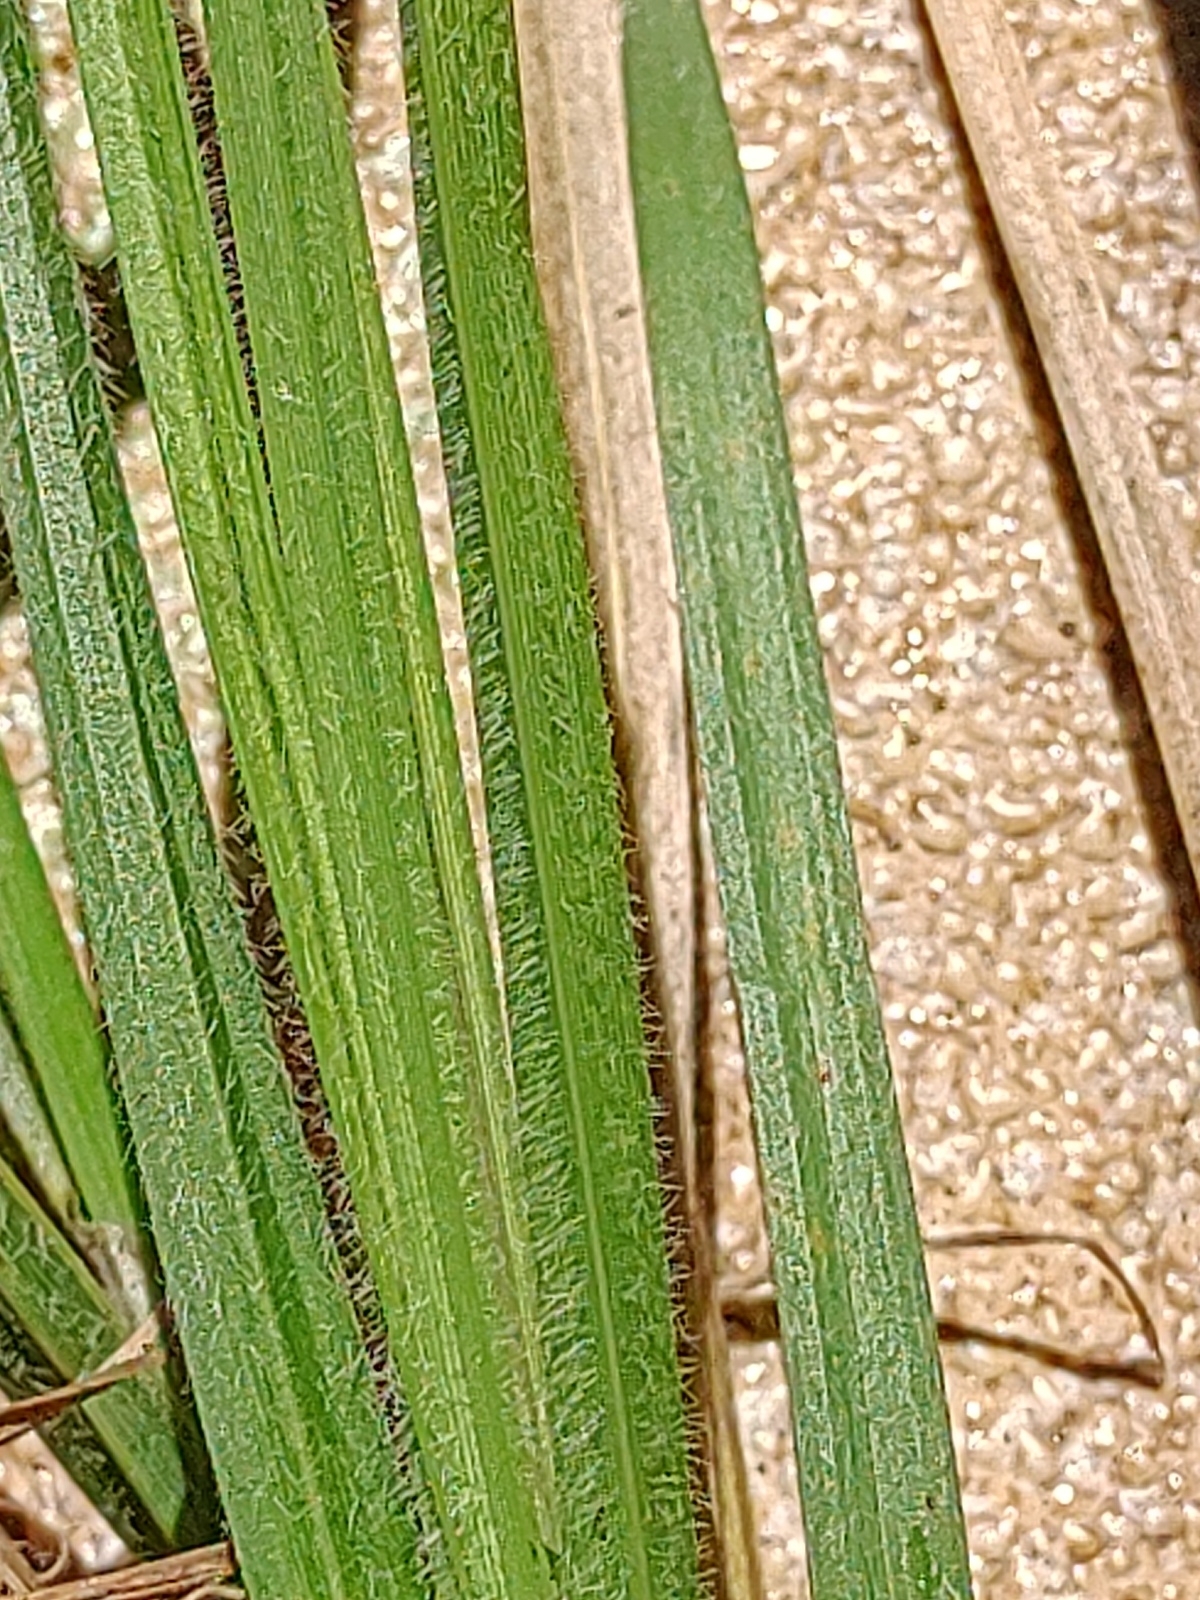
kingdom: Plantae
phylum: Tracheophyta
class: Liliopsida
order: Poales
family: Cyperaceae
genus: Carex
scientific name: Carex hirta
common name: Hairy sedge
